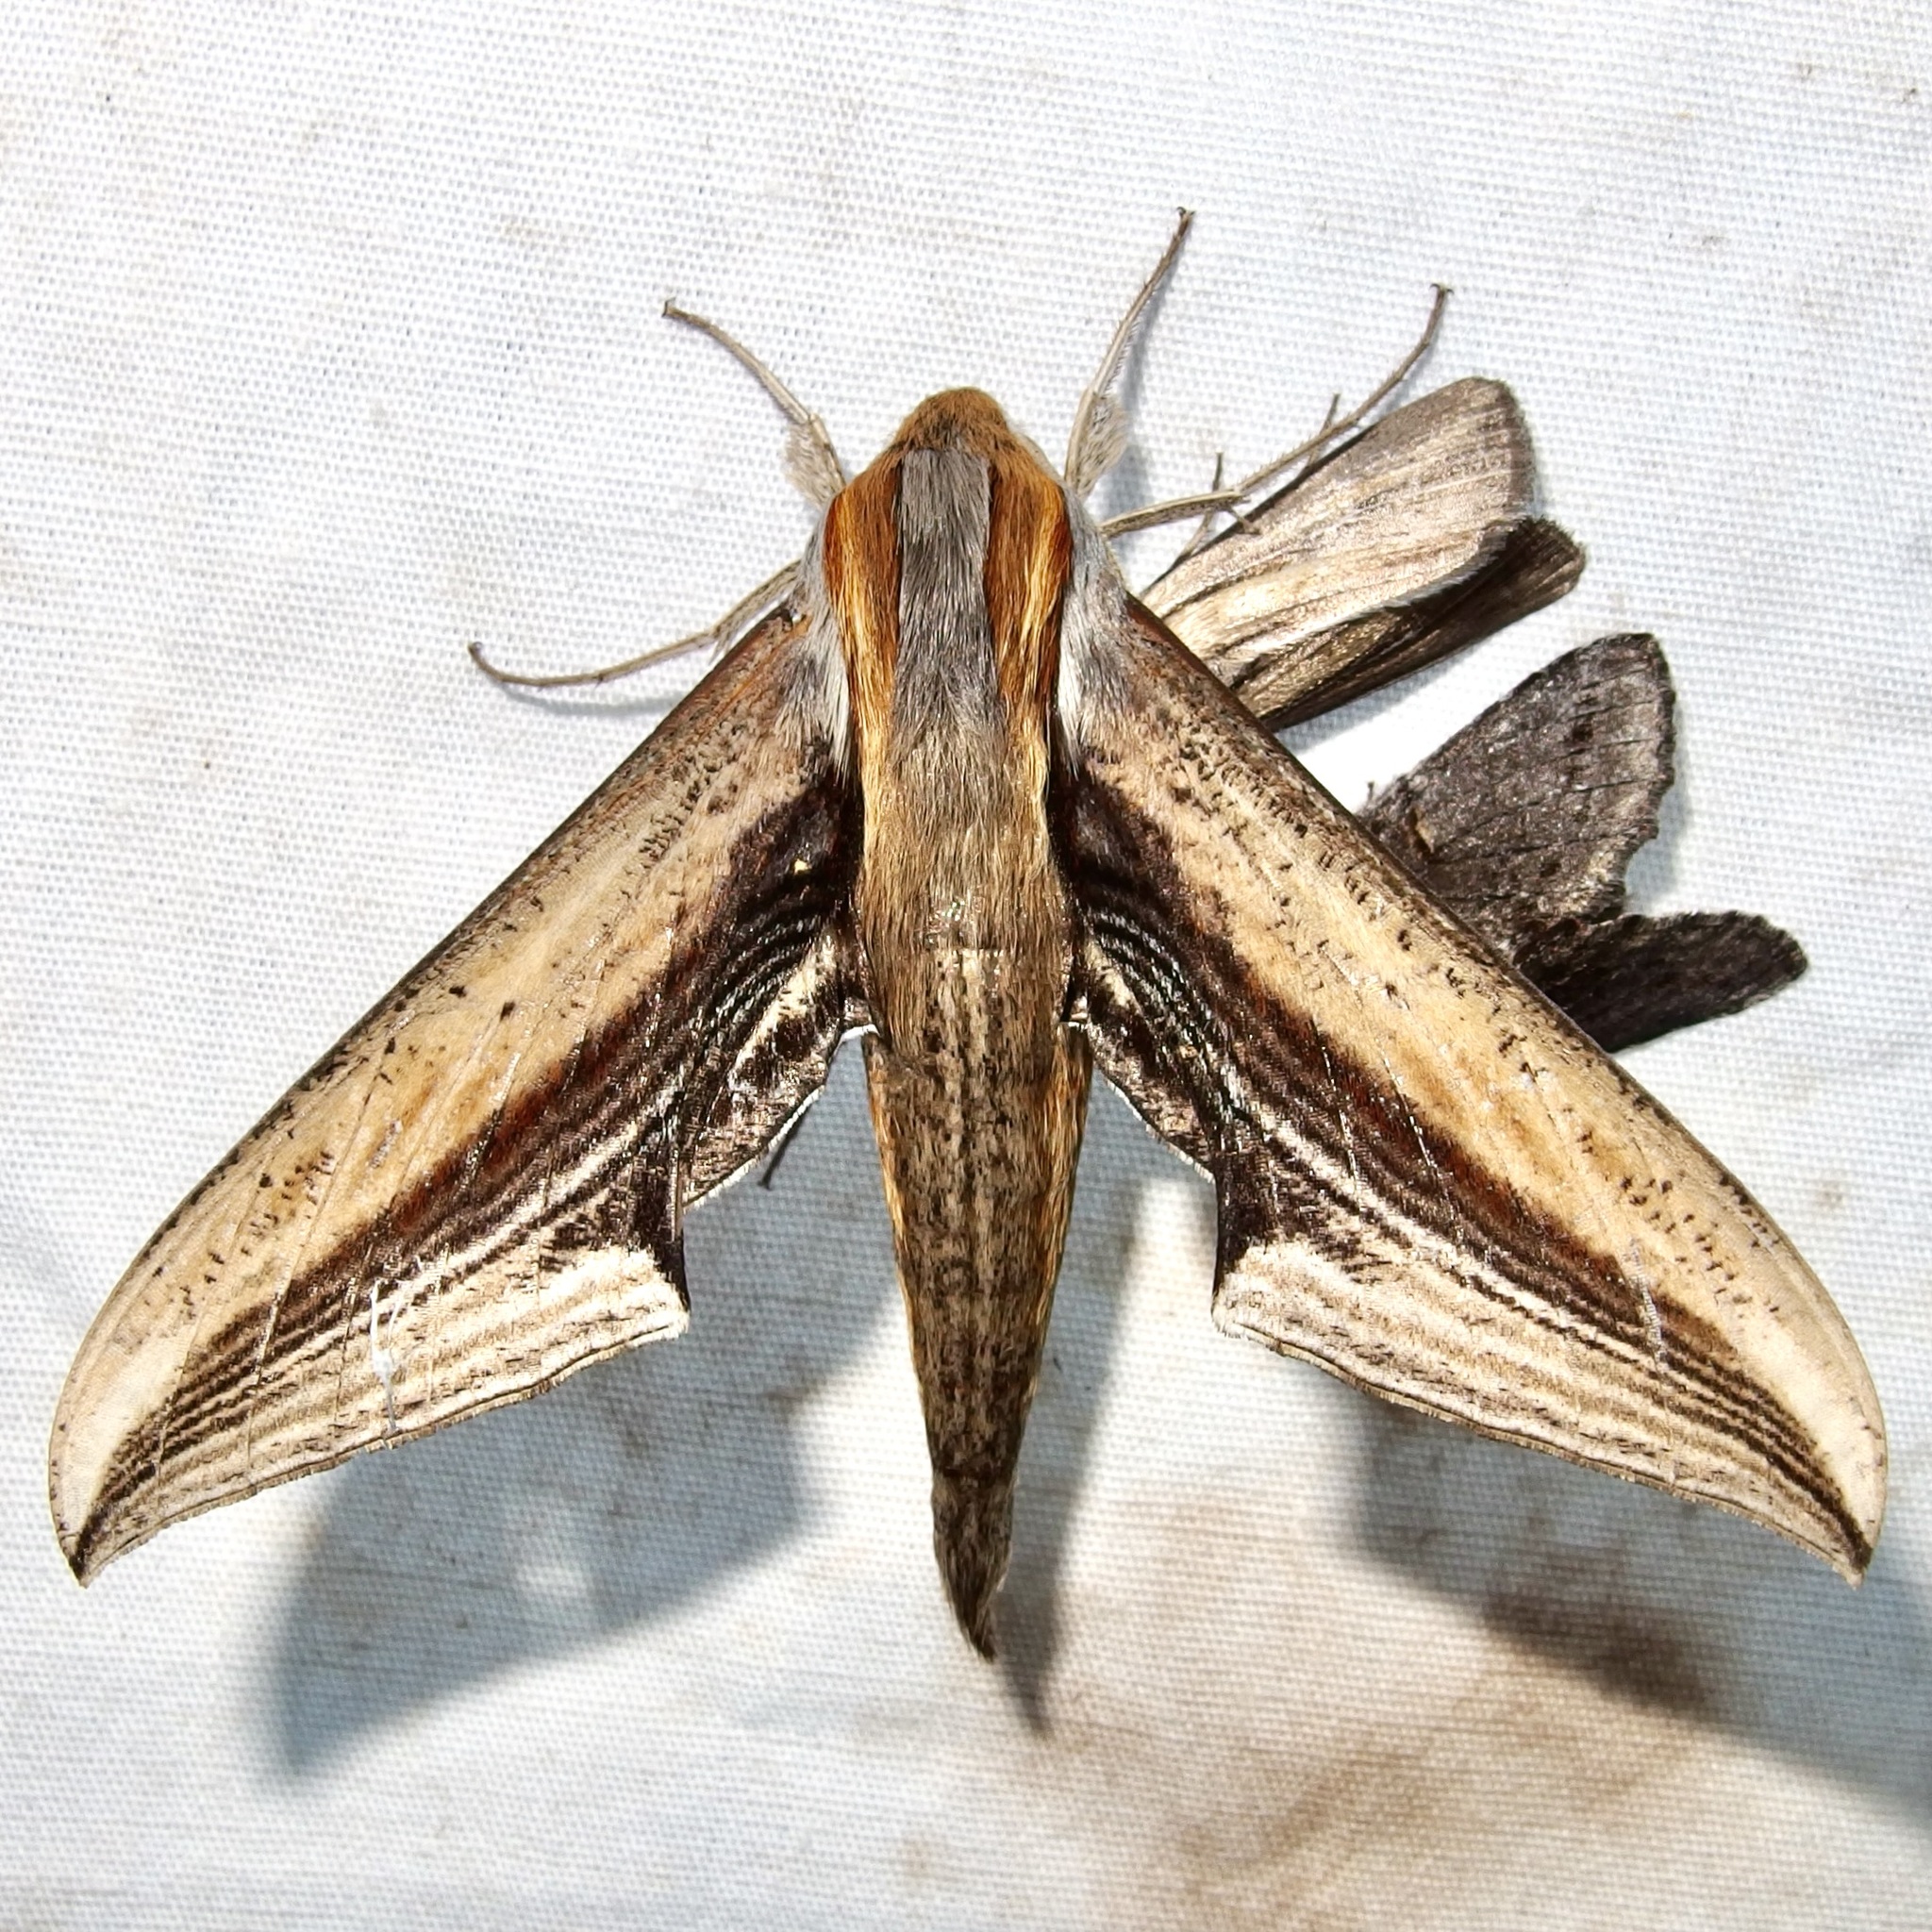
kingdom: Animalia
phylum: Arthropoda
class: Insecta
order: Lepidoptera
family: Sphingidae
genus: Xylophanes
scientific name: Xylophanes falco
